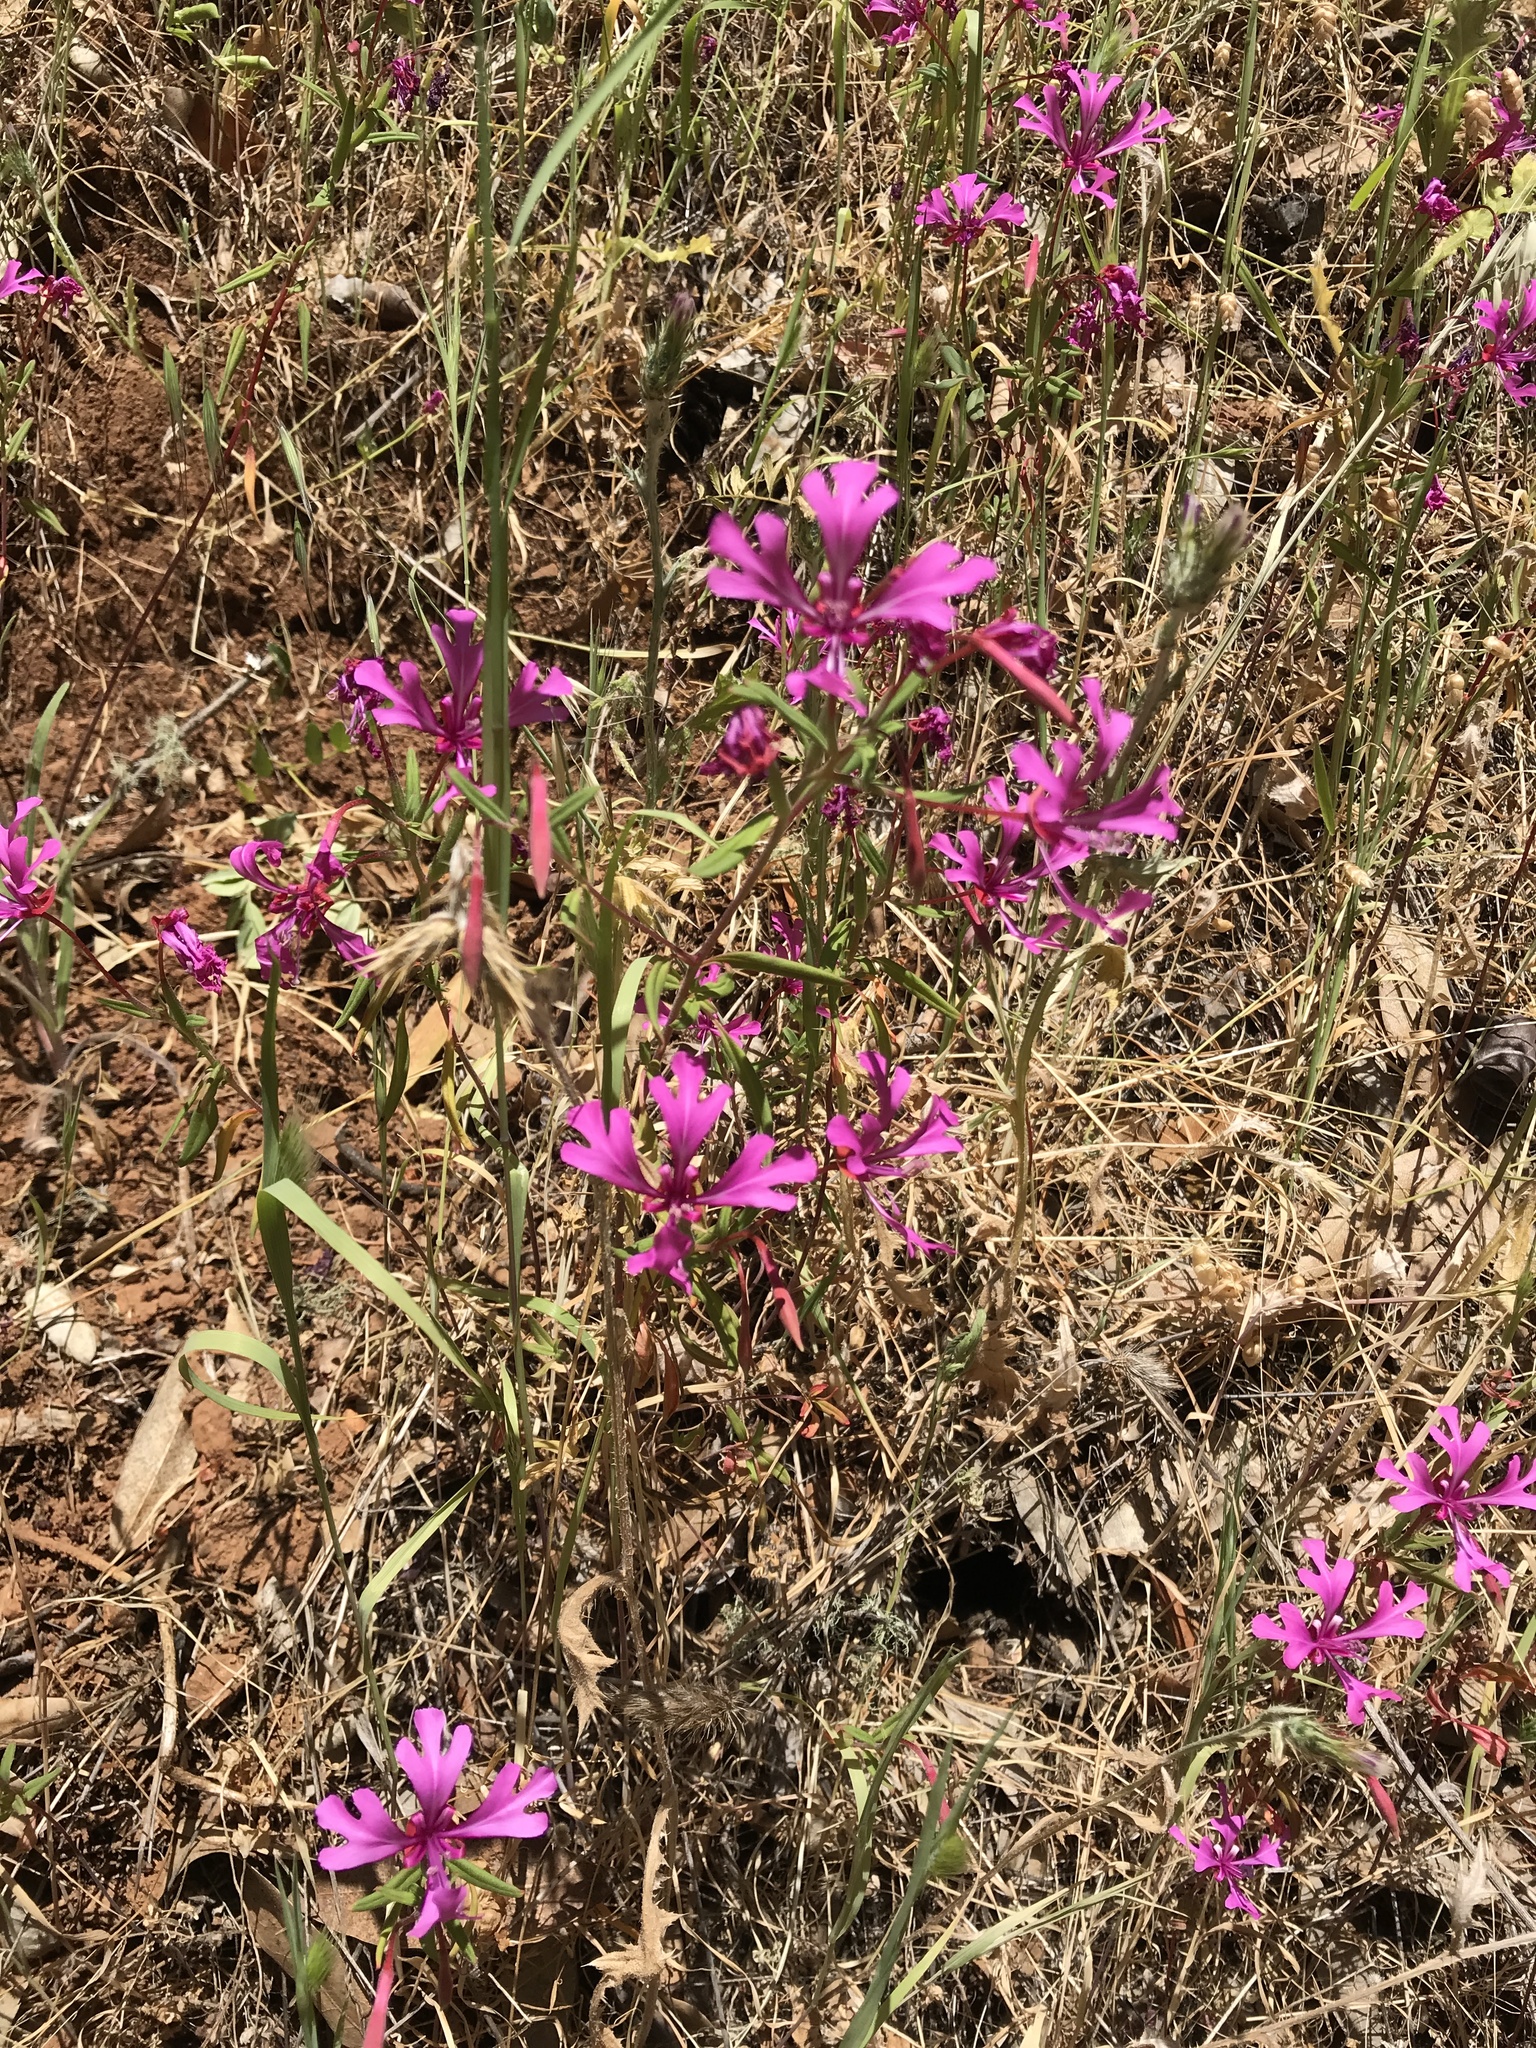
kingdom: Plantae
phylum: Tracheophyta
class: Magnoliopsida
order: Myrtales
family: Onagraceae
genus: Clarkia
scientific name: Clarkia concinna
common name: Red-ribbons
